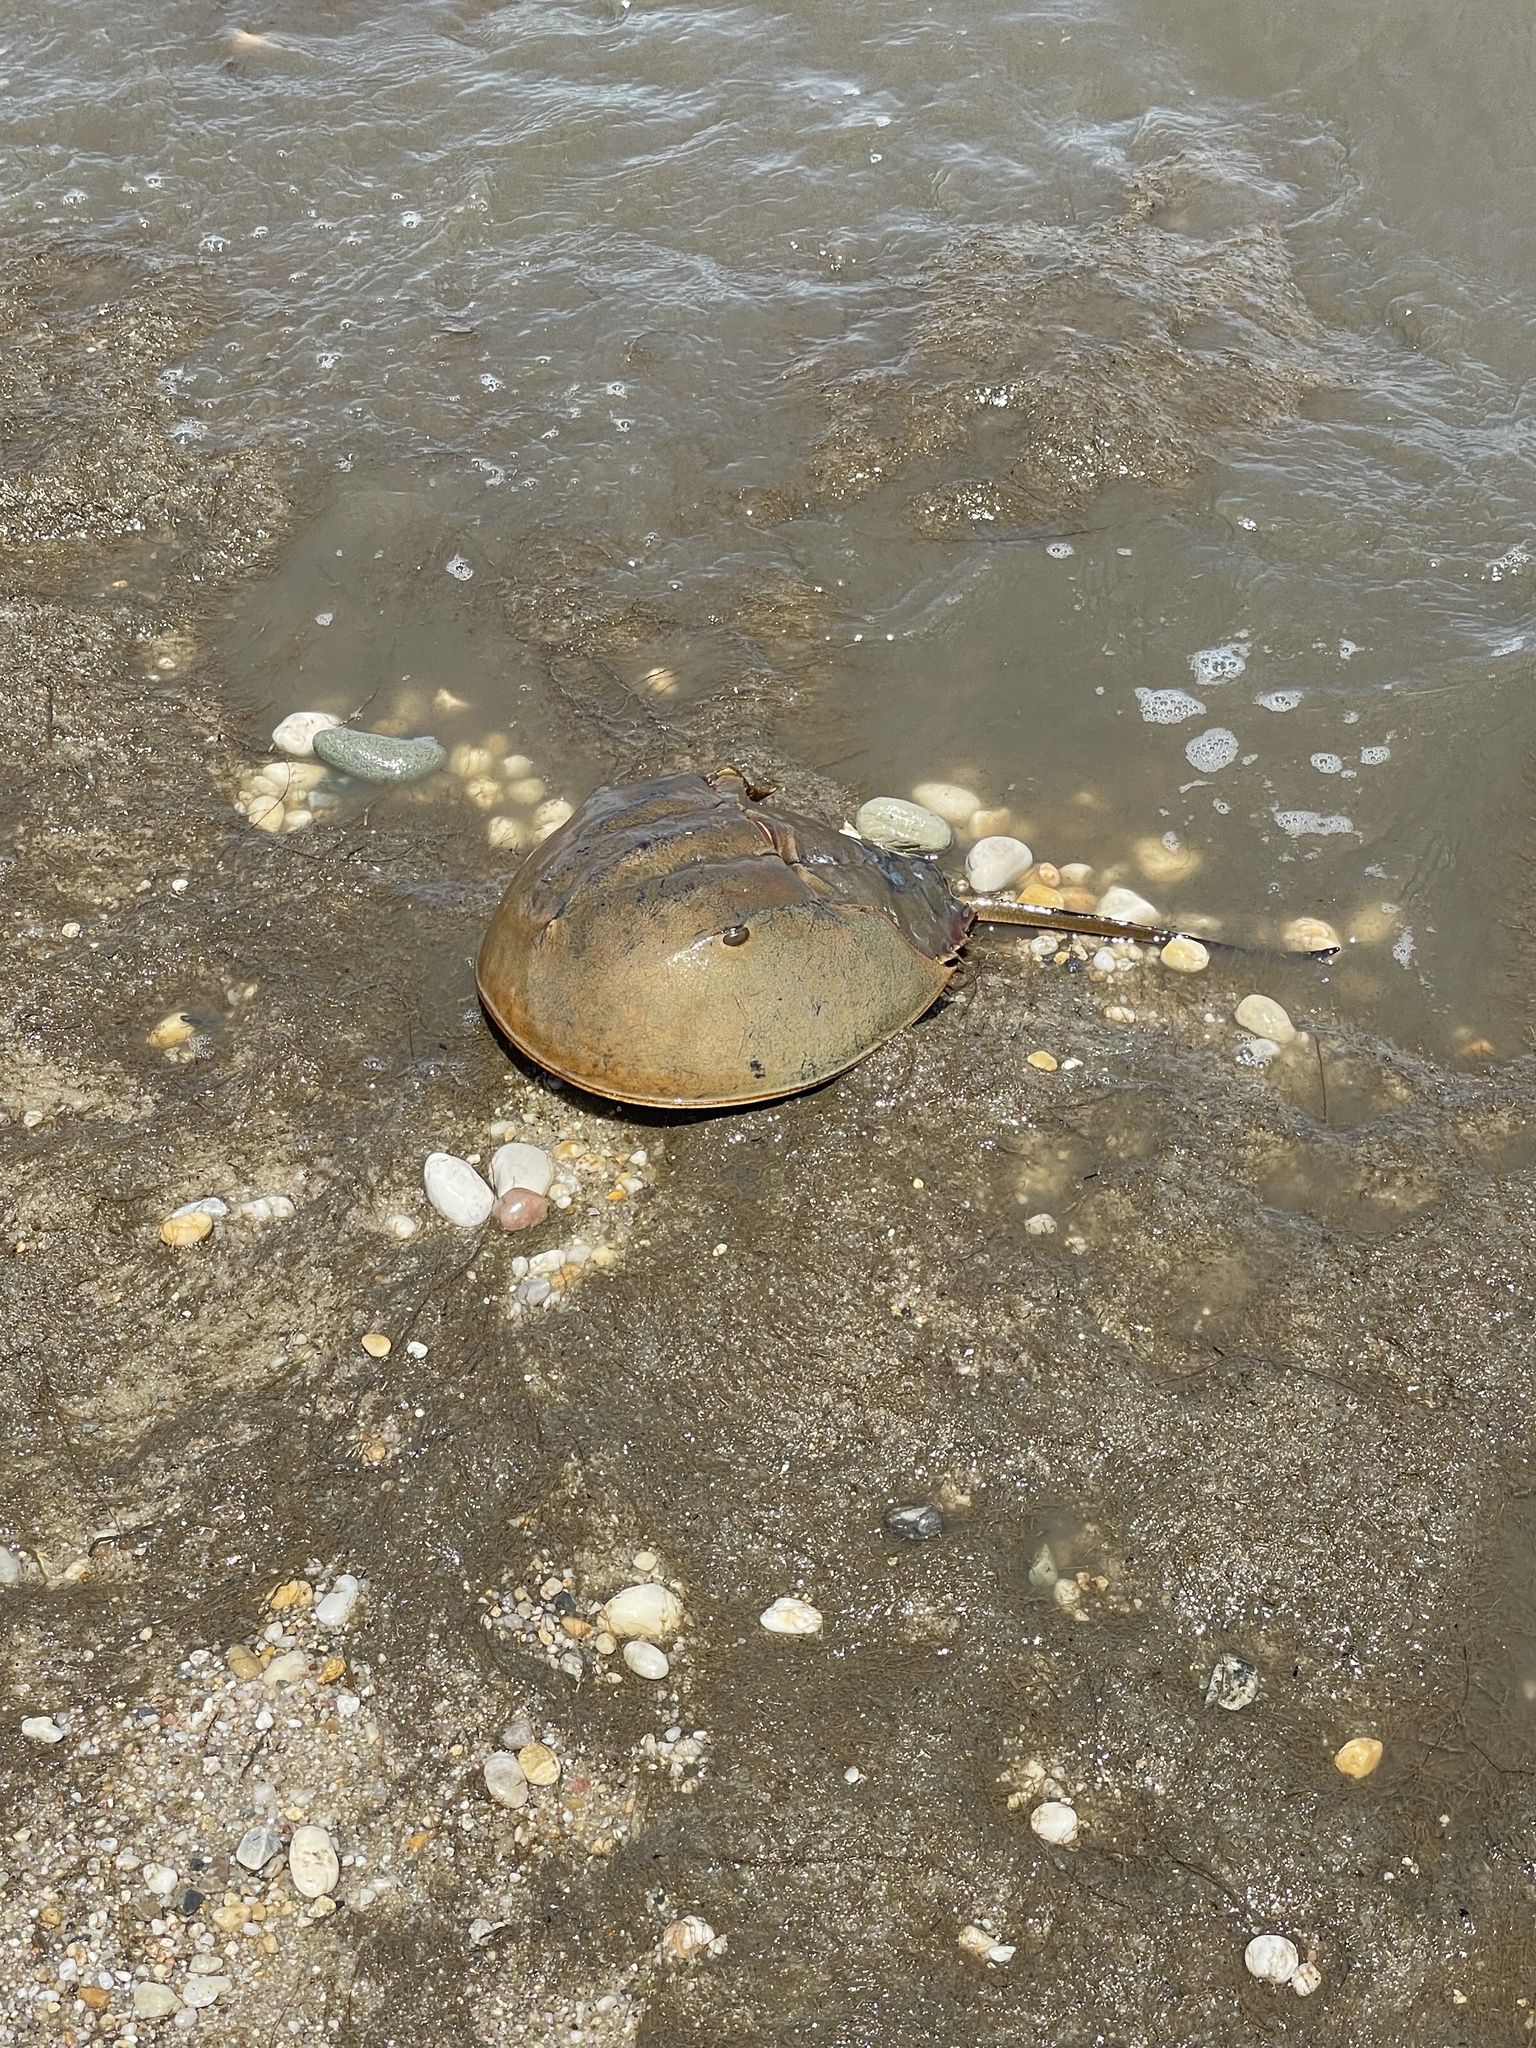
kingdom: Animalia
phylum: Arthropoda
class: Merostomata
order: Xiphosurida
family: Limulidae
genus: Limulus
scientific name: Limulus polyphemus
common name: Horseshoe crab
